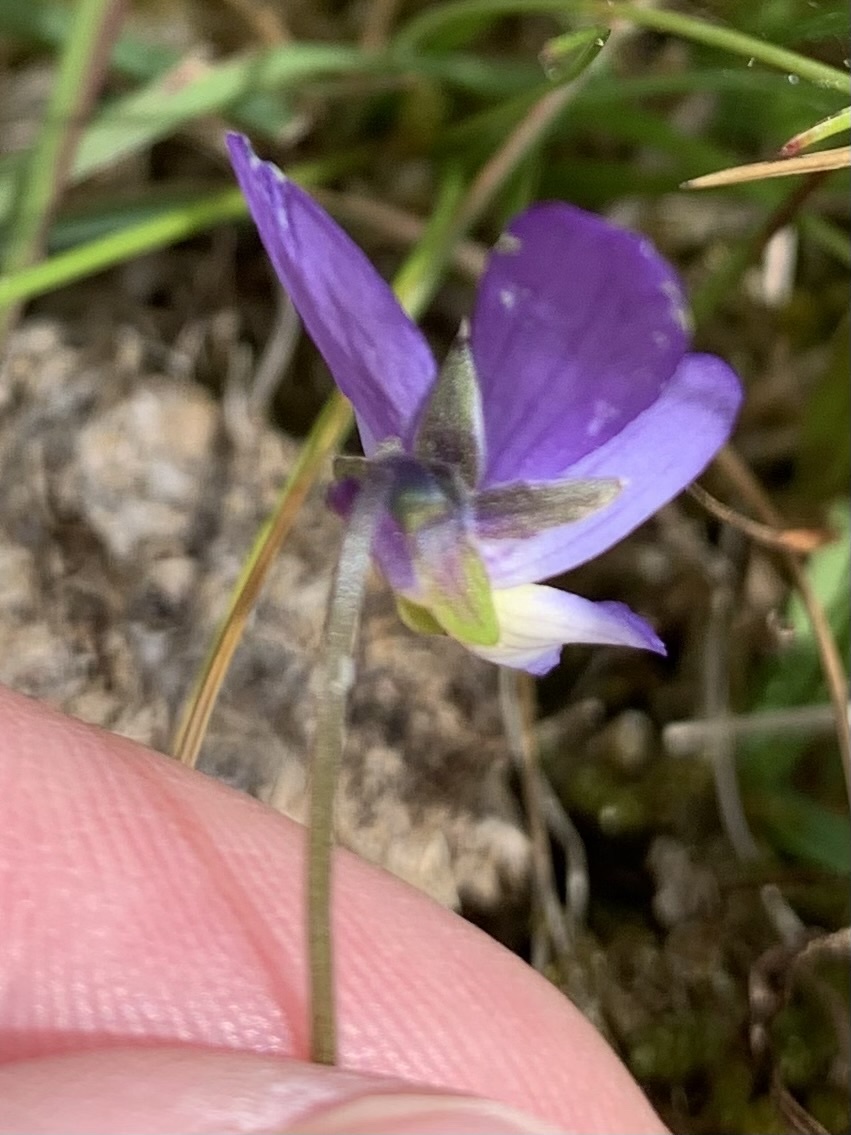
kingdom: Plantae
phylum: Tracheophyta
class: Magnoliopsida
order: Malpighiales
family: Violaceae
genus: Viola
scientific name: Viola tricolor
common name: Pansy
